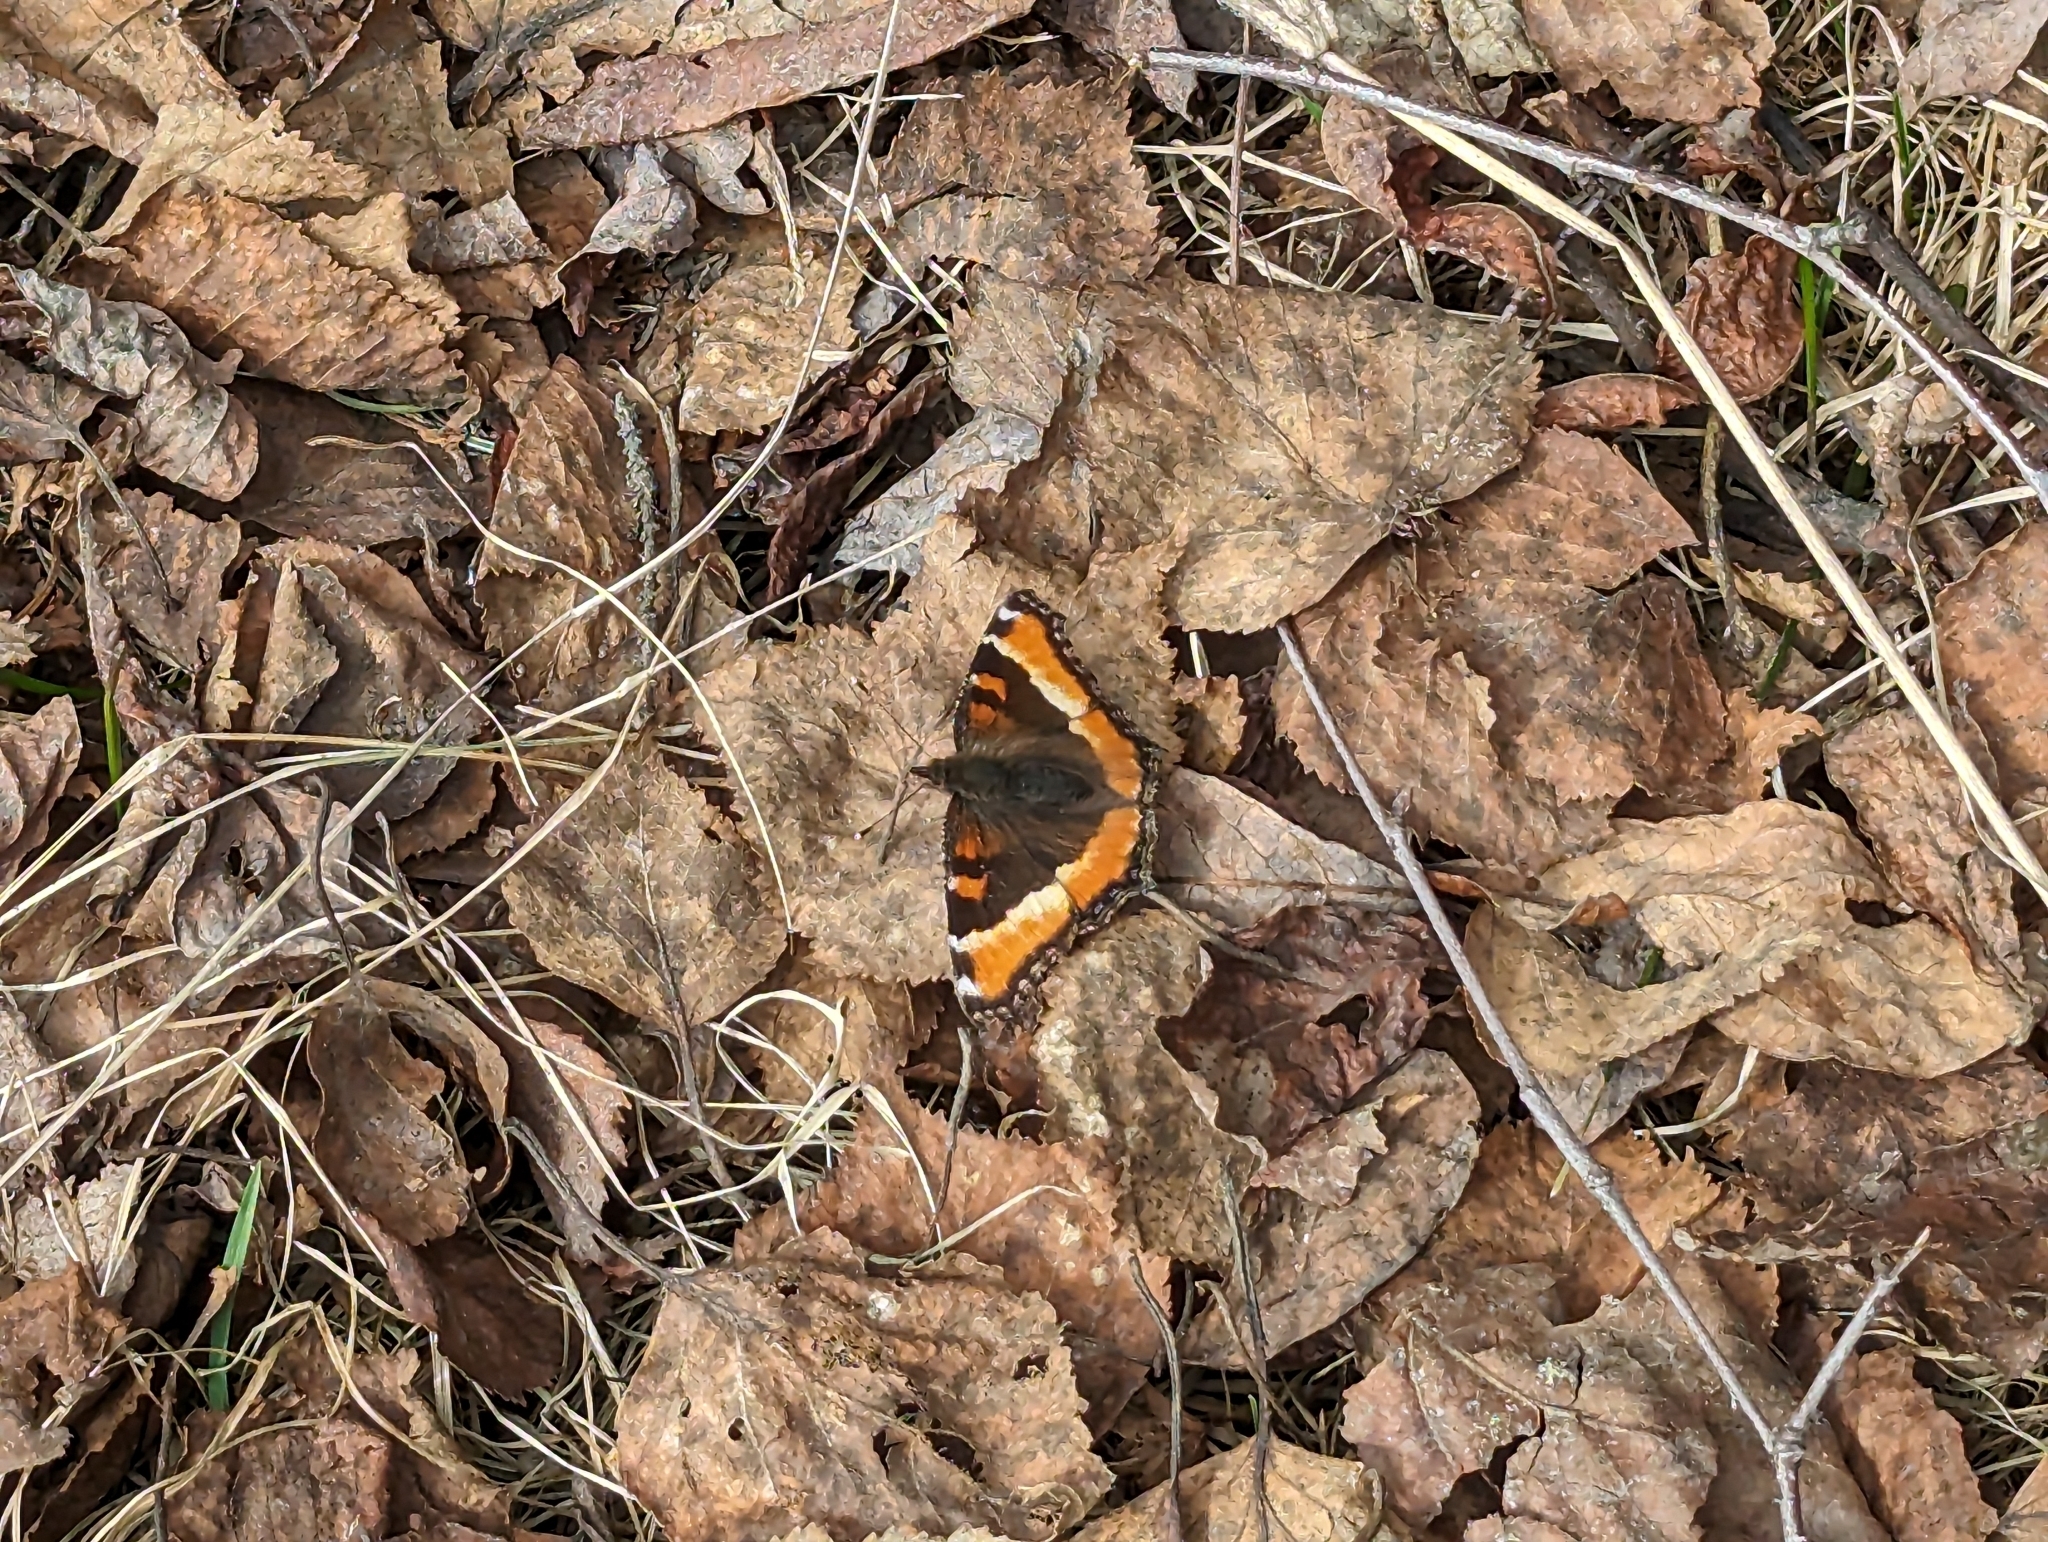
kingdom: Animalia
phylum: Arthropoda
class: Insecta
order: Lepidoptera
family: Nymphalidae
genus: Aglais
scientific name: Aglais milberti
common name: Milbert's tortoiseshell
